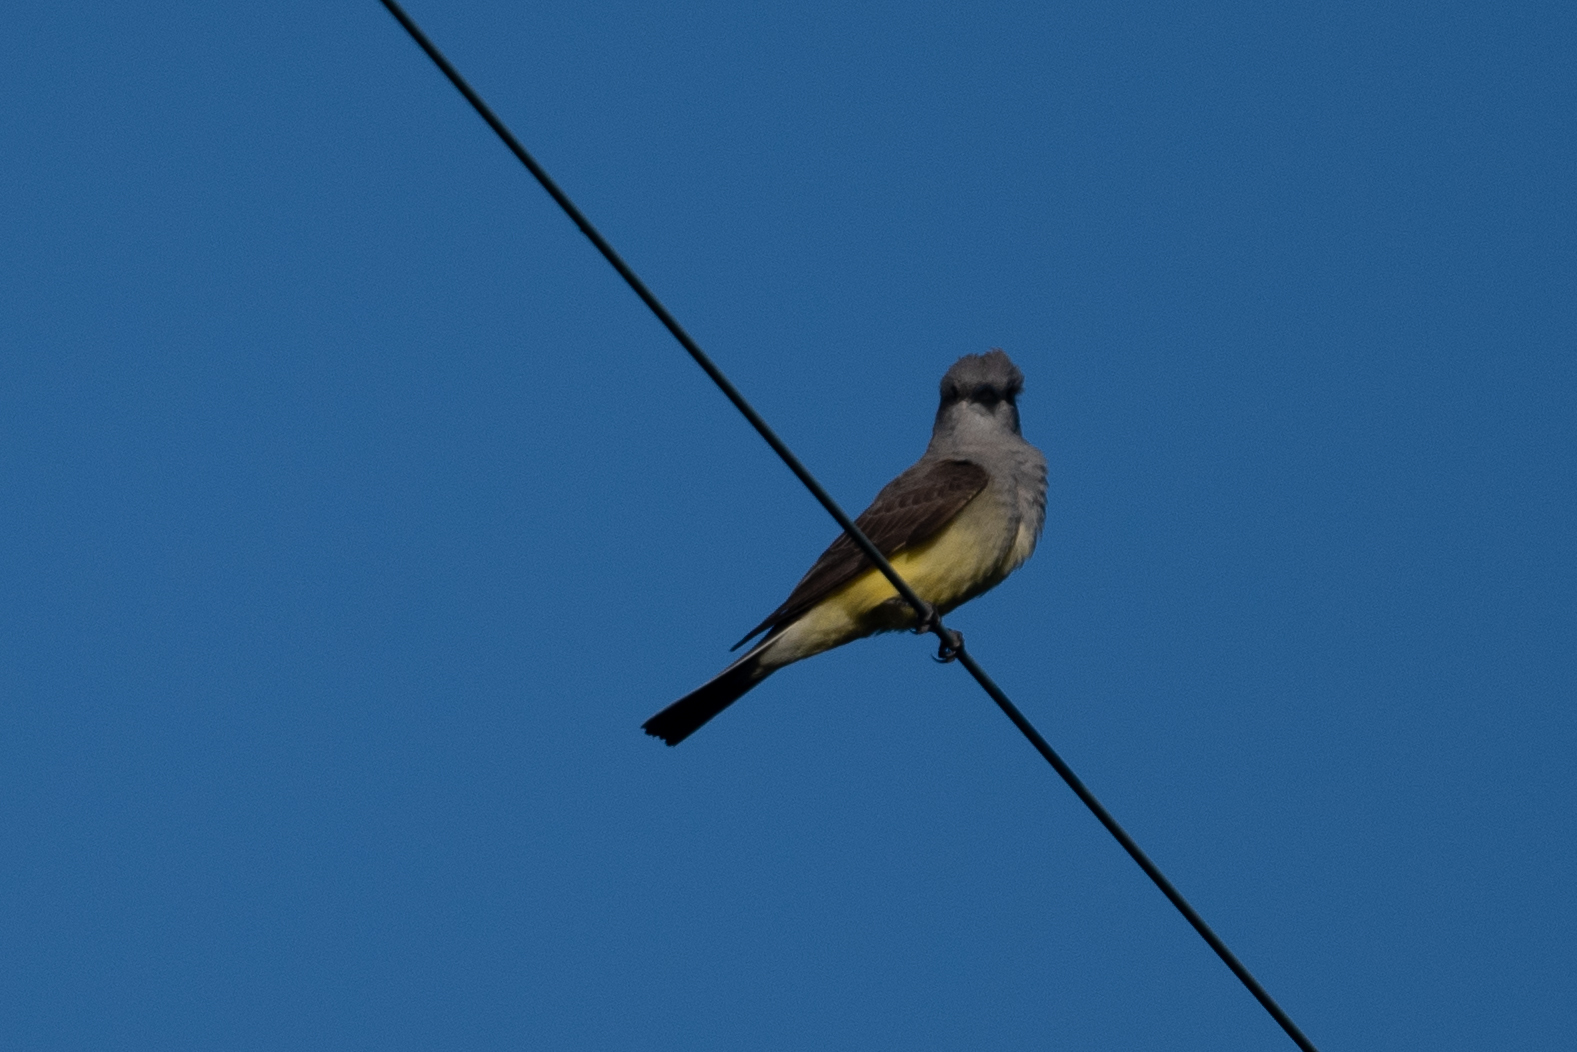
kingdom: Animalia
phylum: Chordata
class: Aves
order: Passeriformes
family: Tyrannidae
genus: Tyrannus
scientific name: Tyrannus verticalis
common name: Western kingbird
